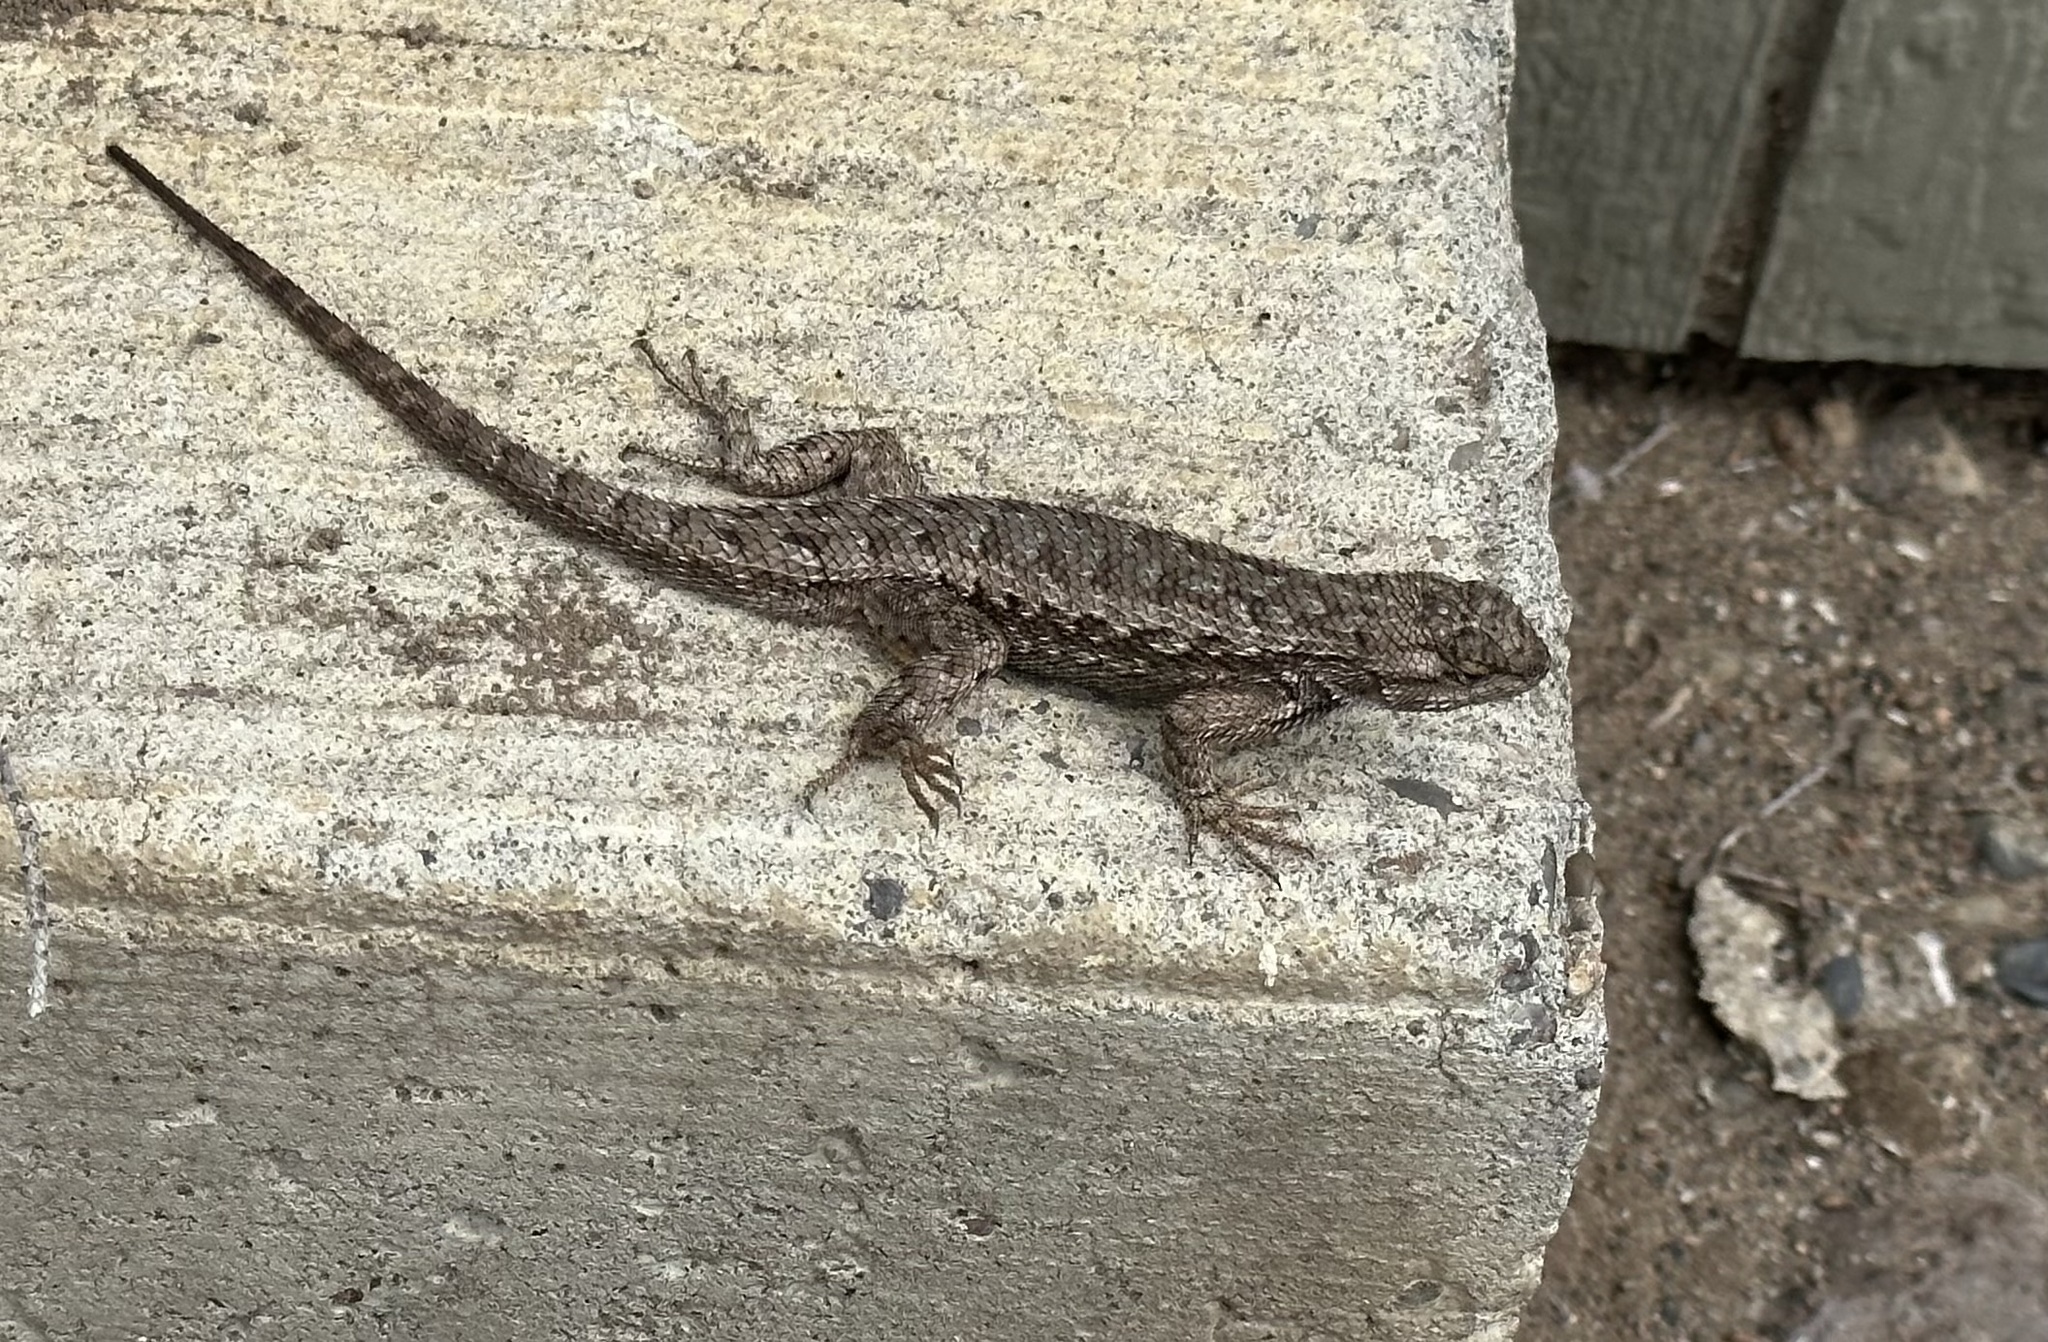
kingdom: Animalia
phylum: Chordata
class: Squamata
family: Phrynosomatidae
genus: Sceloporus
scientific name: Sceloporus occidentalis
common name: Western fence lizard
